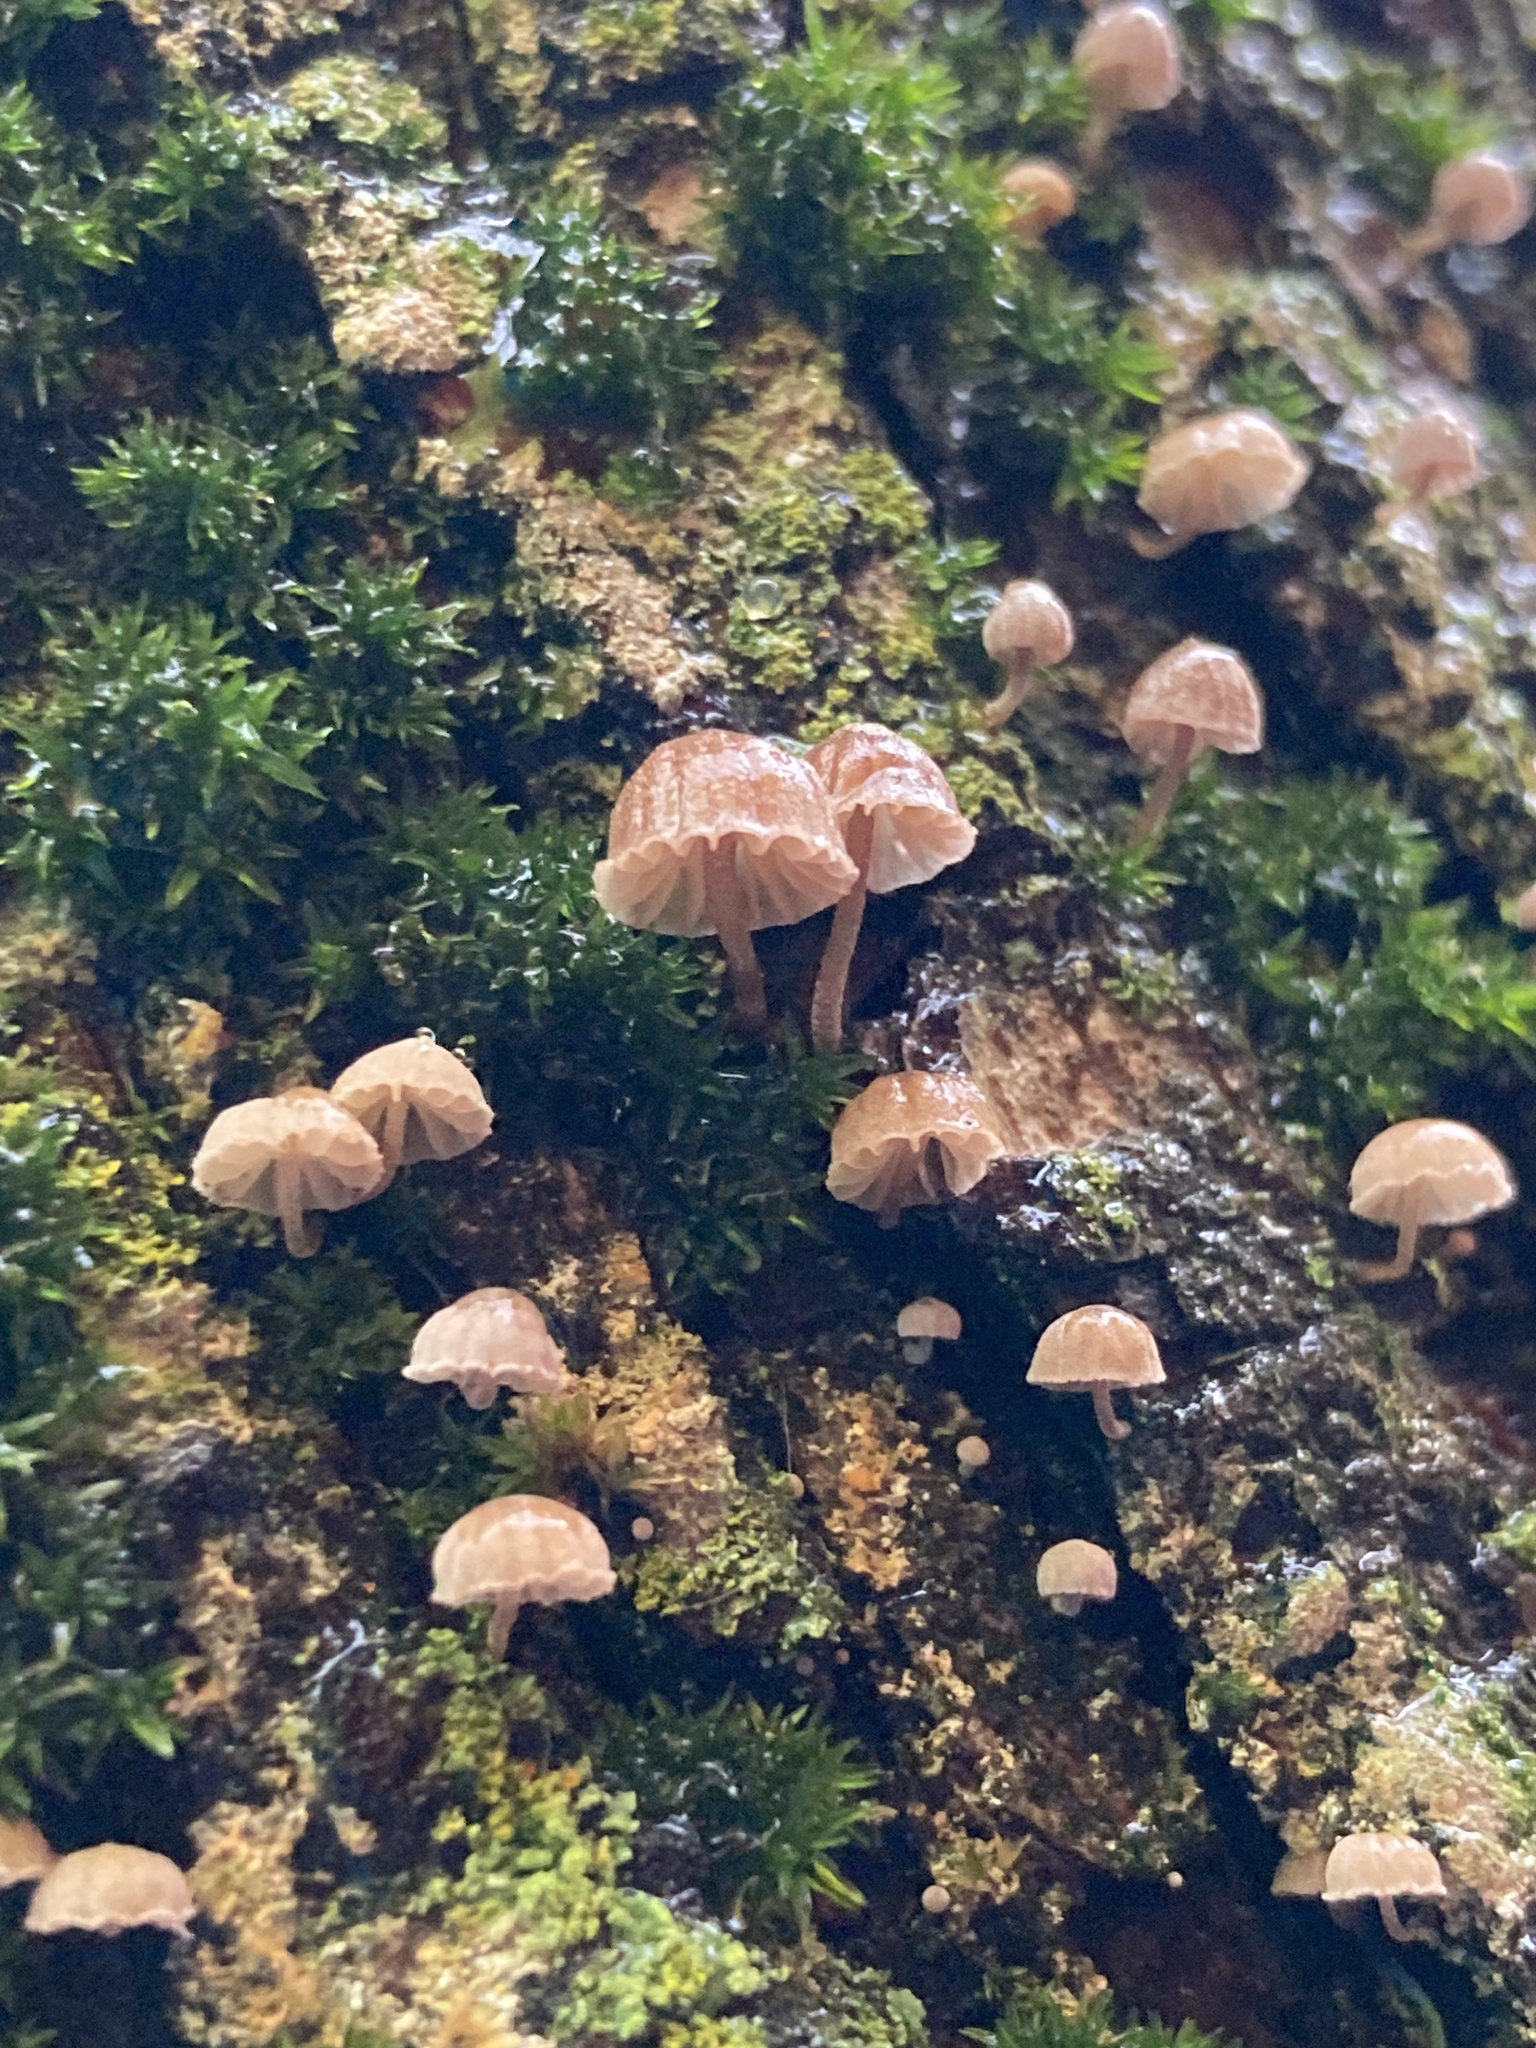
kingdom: Fungi
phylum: Basidiomycota
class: Agaricomycetes
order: Agaricales
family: Mycenaceae
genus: Mycena
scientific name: Mycena meliigena
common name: Mauve bonnet
